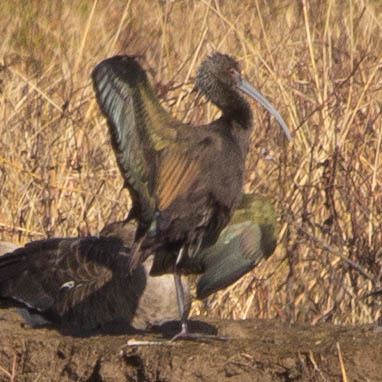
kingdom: Animalia
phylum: Chordata
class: Aves
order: Pelecaniformes
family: Threskiornithidae
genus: Plegadis
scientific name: Plegadis chihi
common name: White-faced ibis
